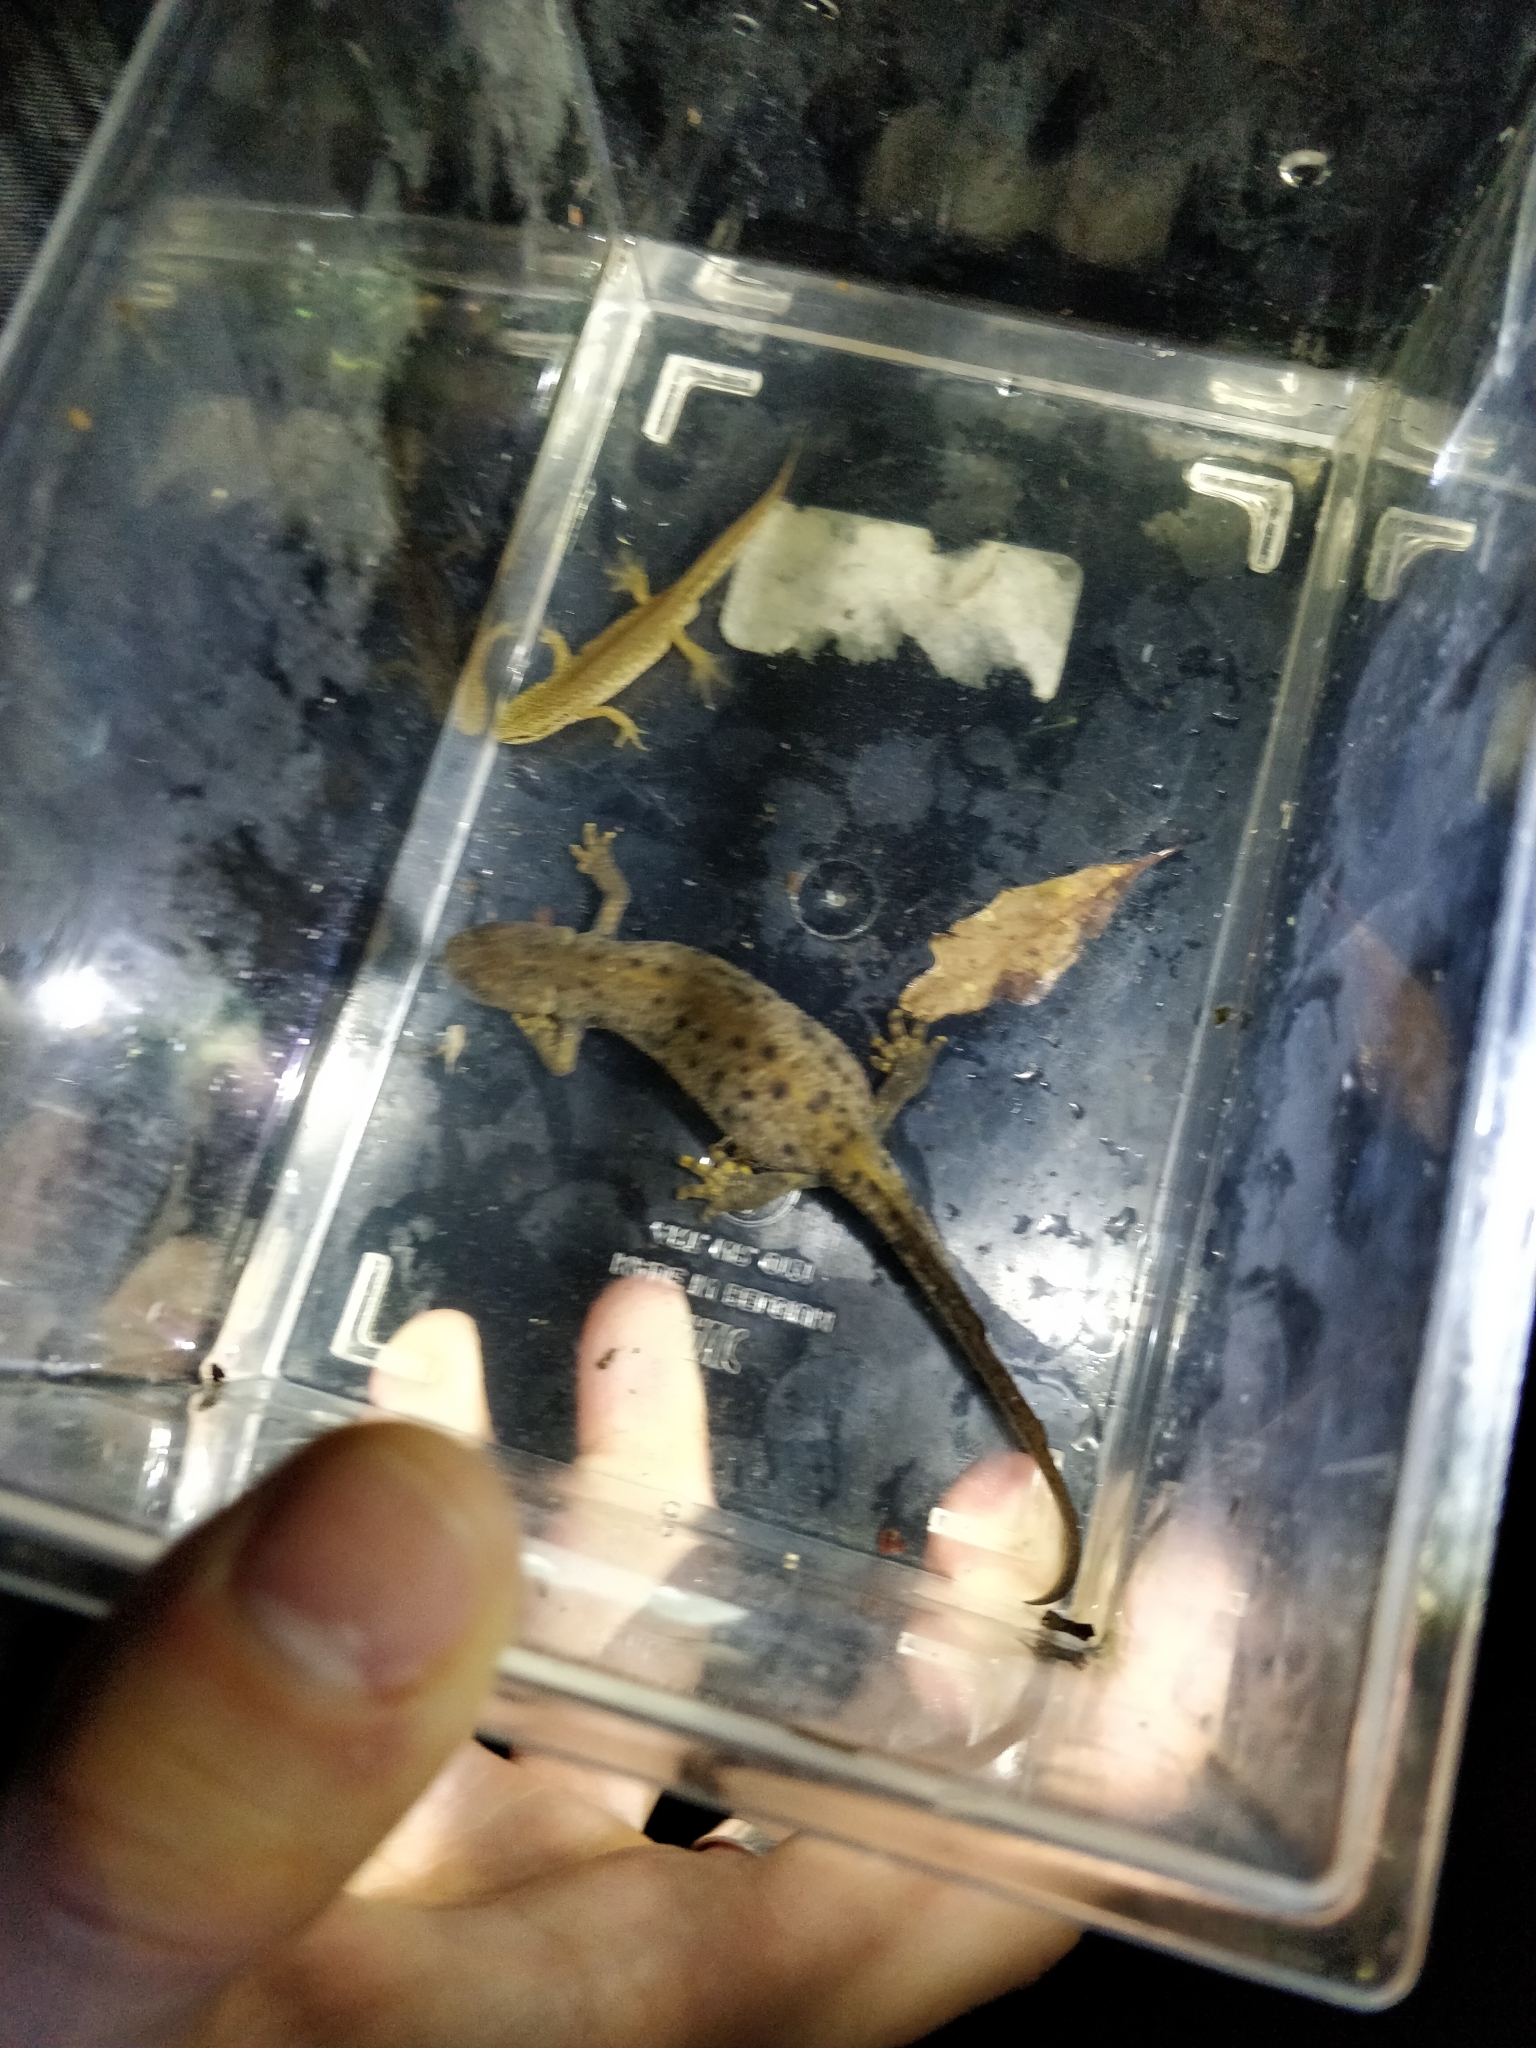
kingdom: Animalia
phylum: Chordata
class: Amphibia
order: Caudata
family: Salamandridae
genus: Triturus
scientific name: Triturus cristatus
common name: Crested newt
